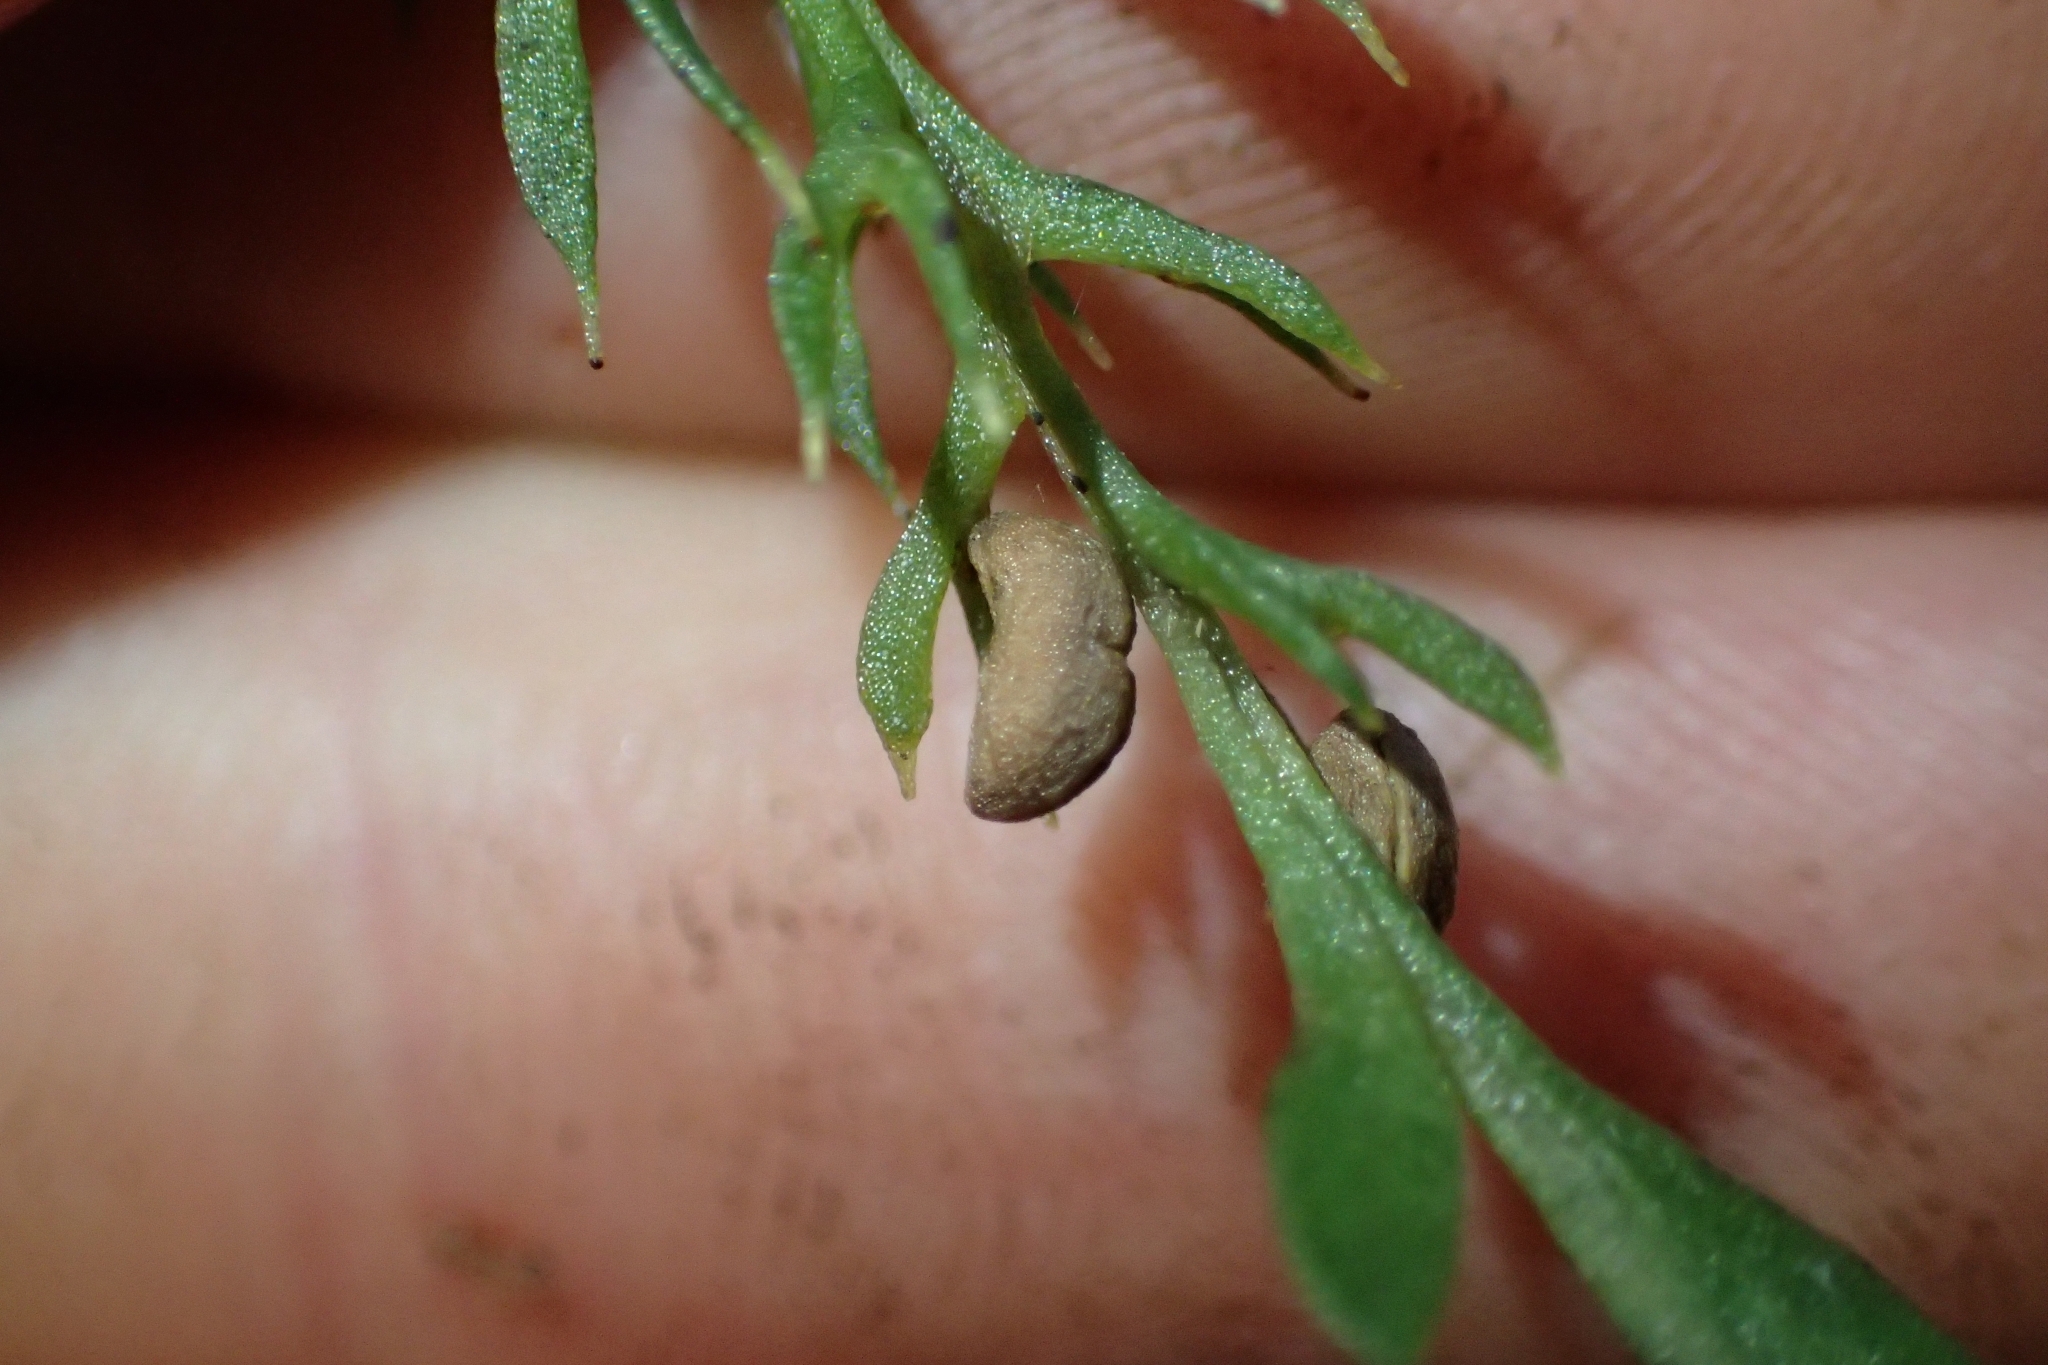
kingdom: Plantae
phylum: Tracheophyta
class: Polypodiopsida
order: Psilotales
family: Psilotaceae
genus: Tmesipteris
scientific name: Tmesipteris elongata
